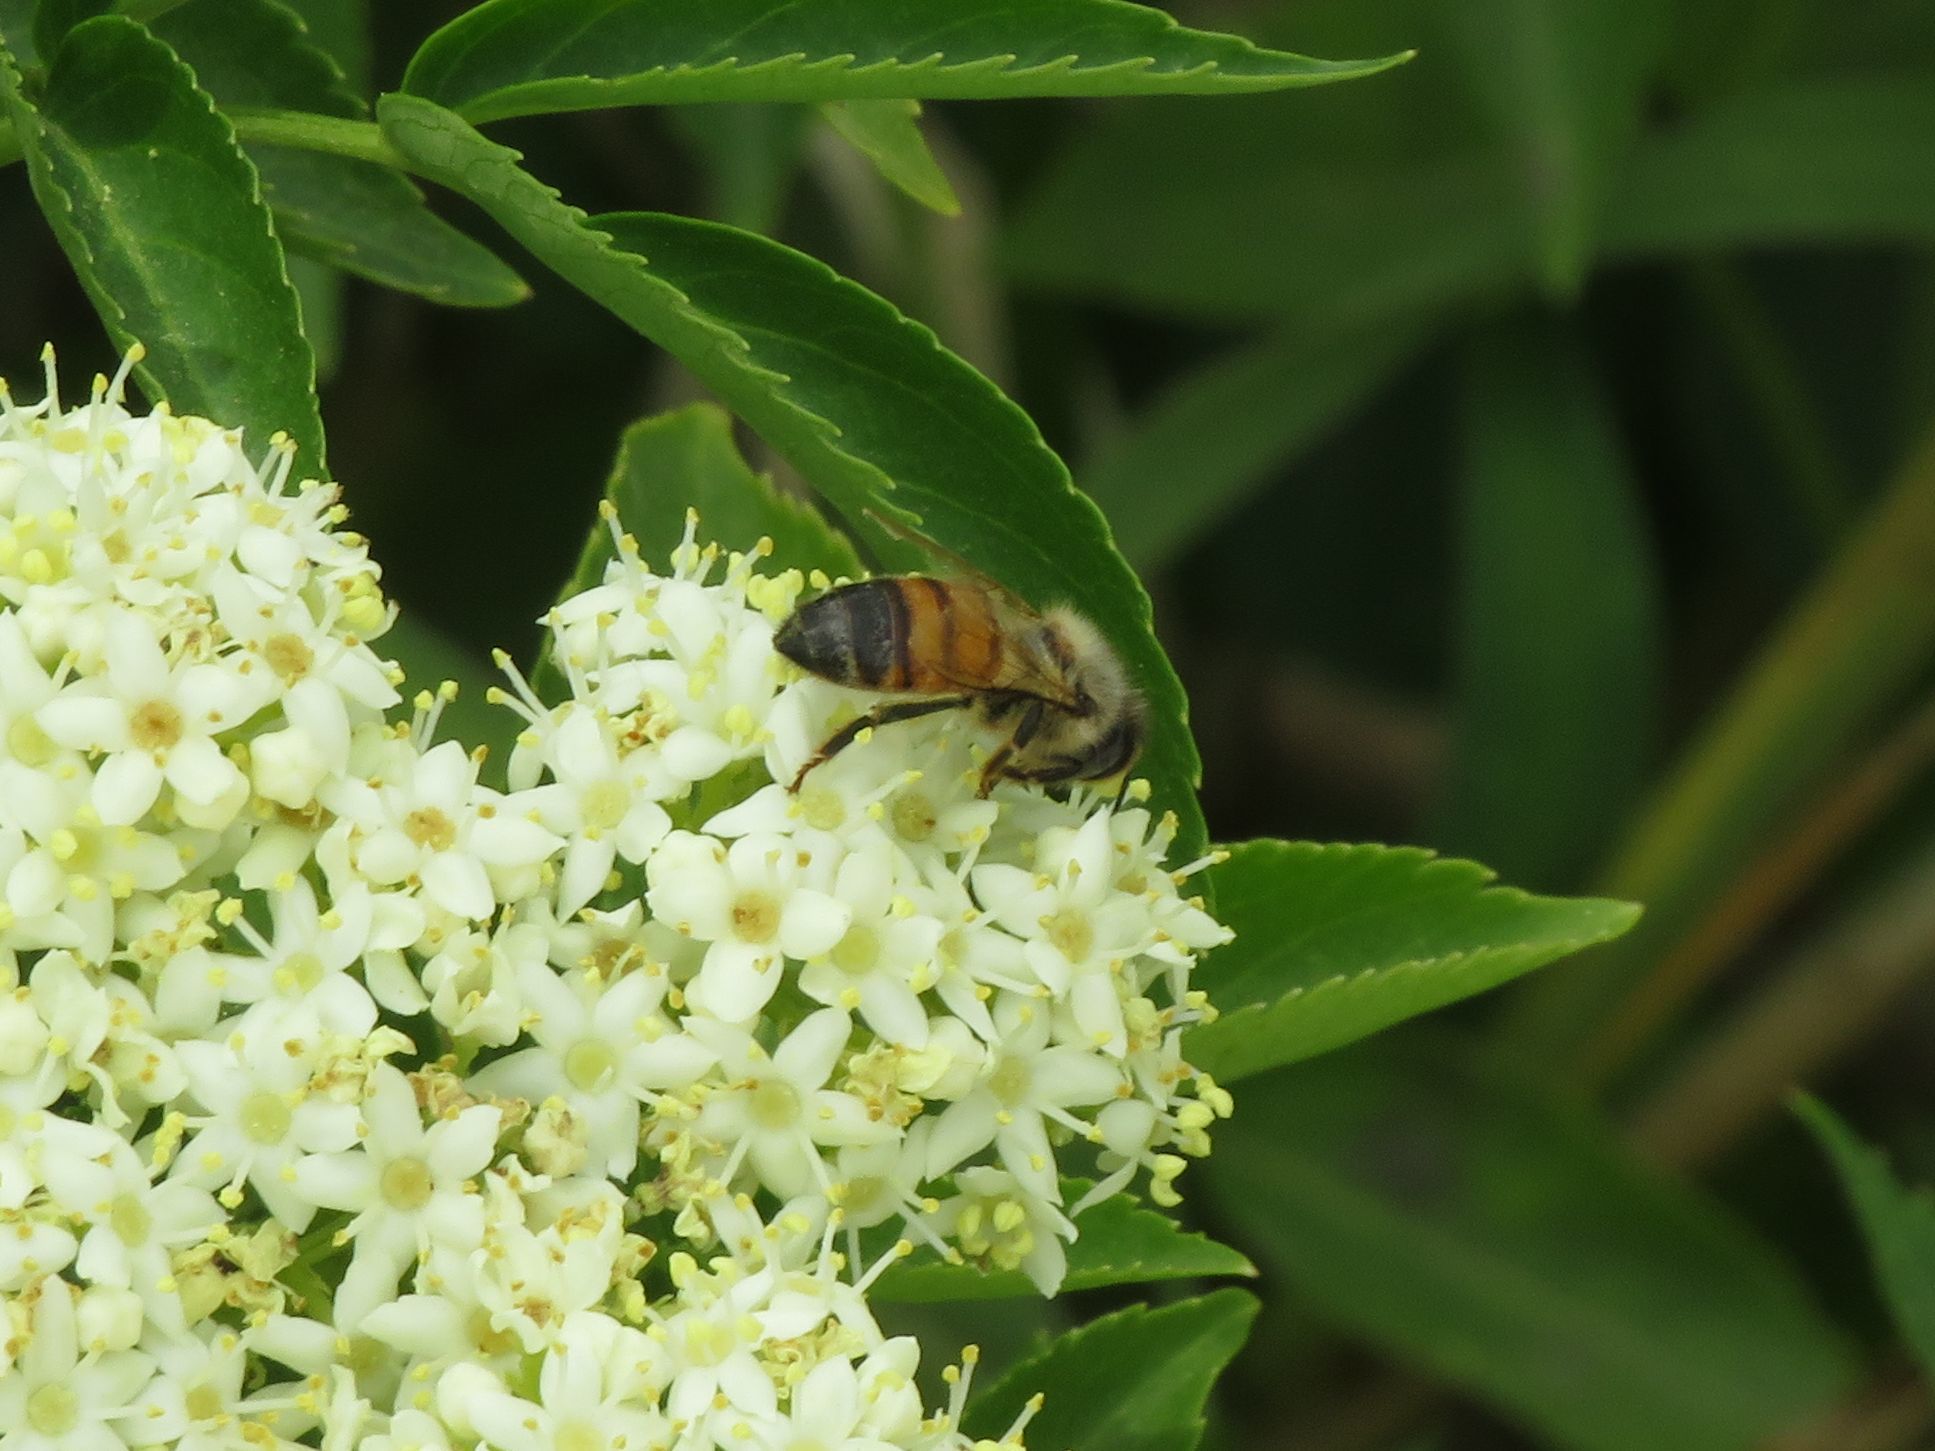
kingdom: Animalia
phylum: Arthropoda
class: Insecta
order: Hymenoptera
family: Apidae
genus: Apis
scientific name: Apis mellifera
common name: Honey bee
